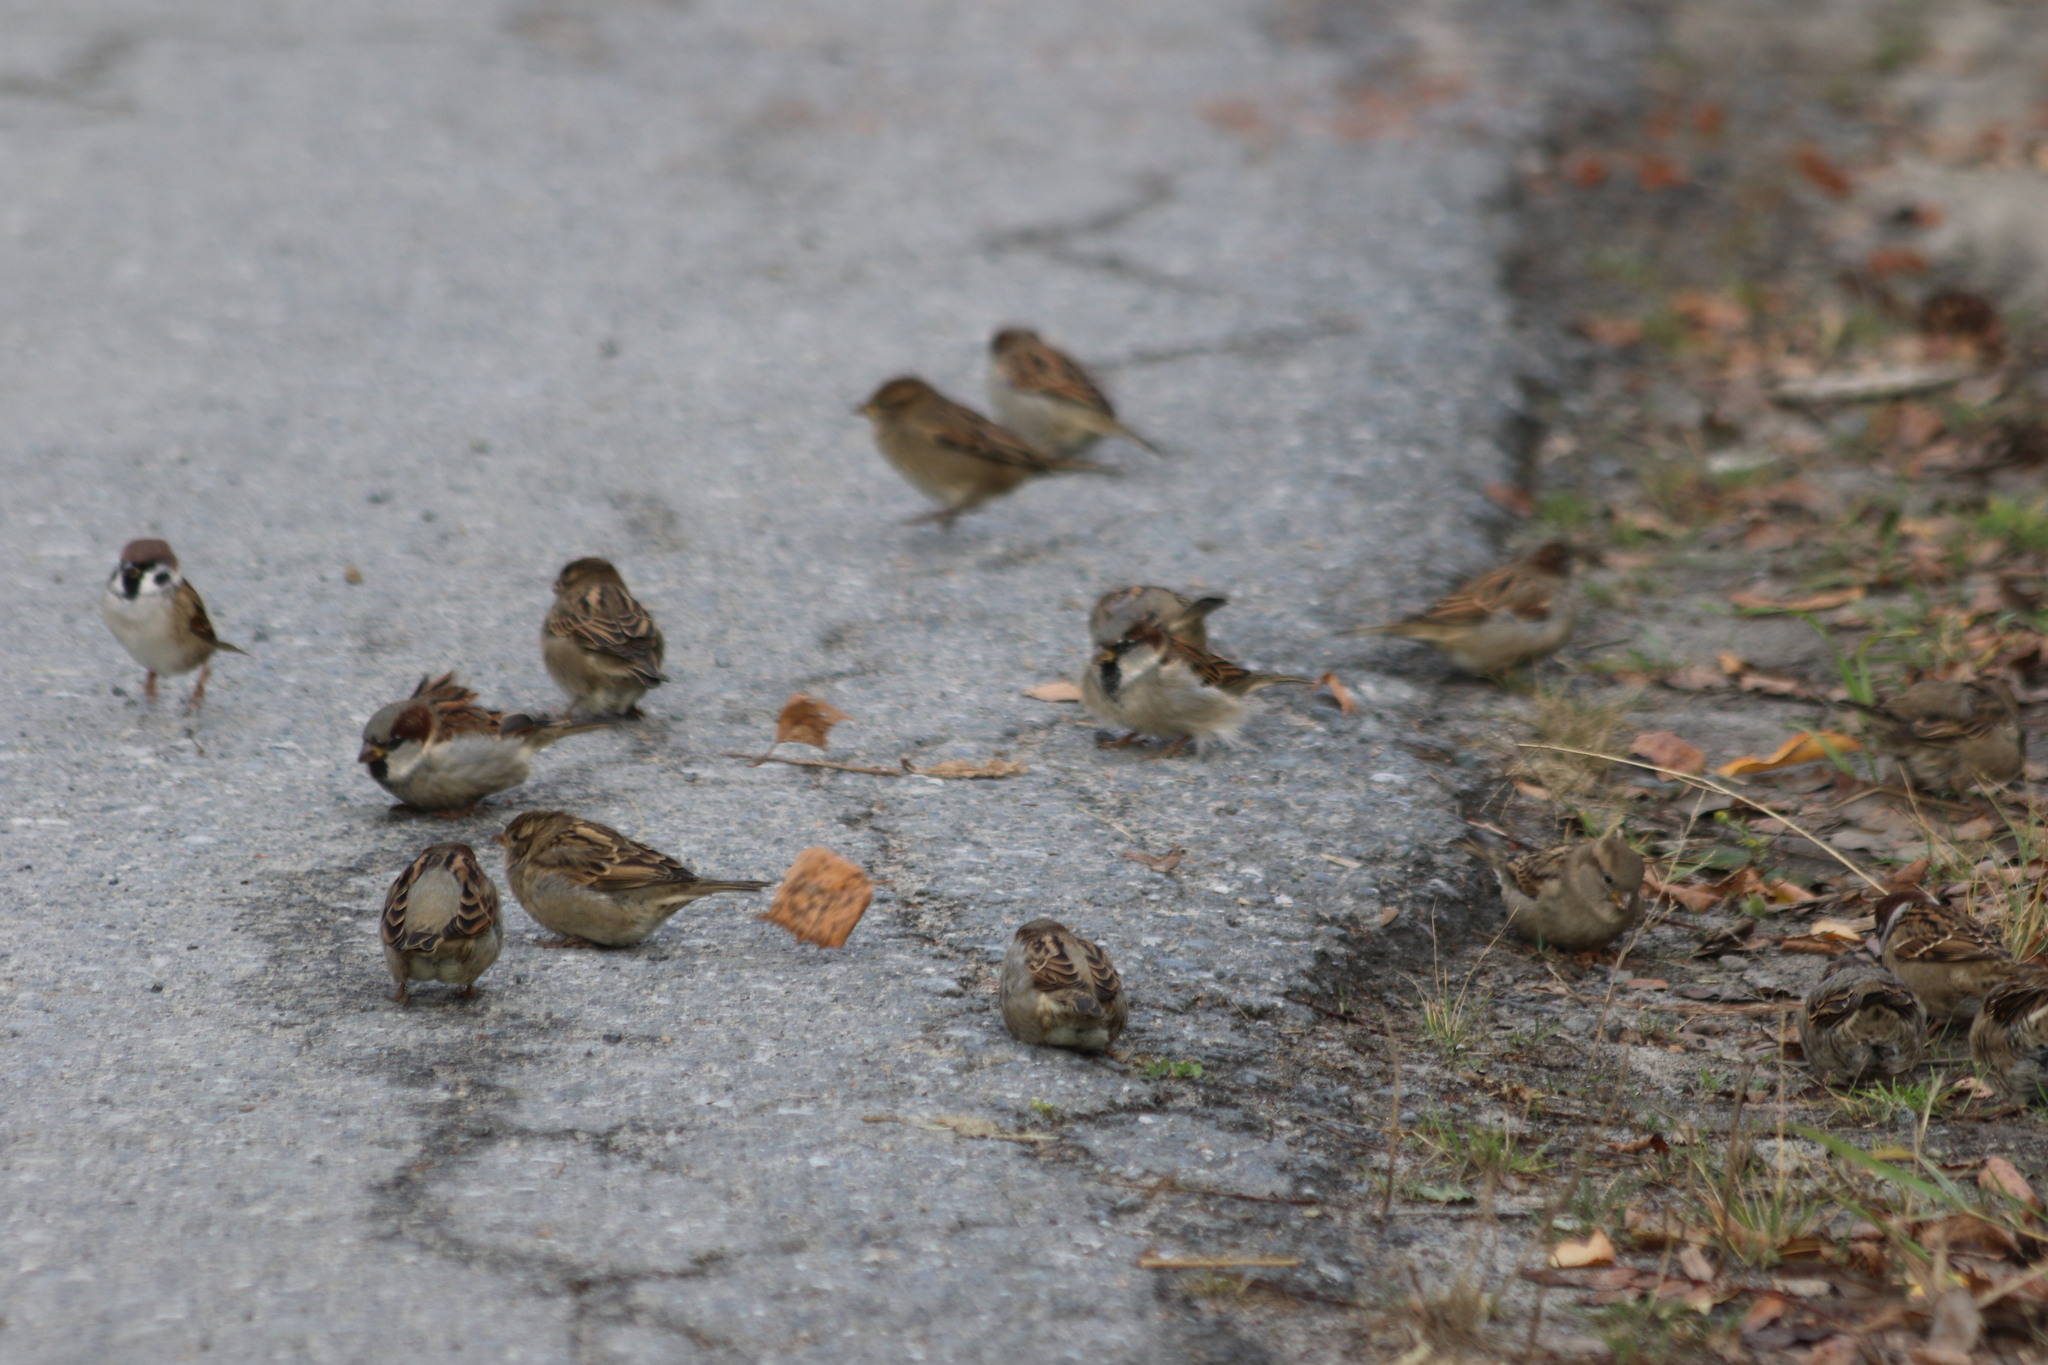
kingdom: Animalia
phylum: Chordata
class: Aves
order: Passeriformes
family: Passeridae
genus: Passer
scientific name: Passer domesticus
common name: House sparrow
